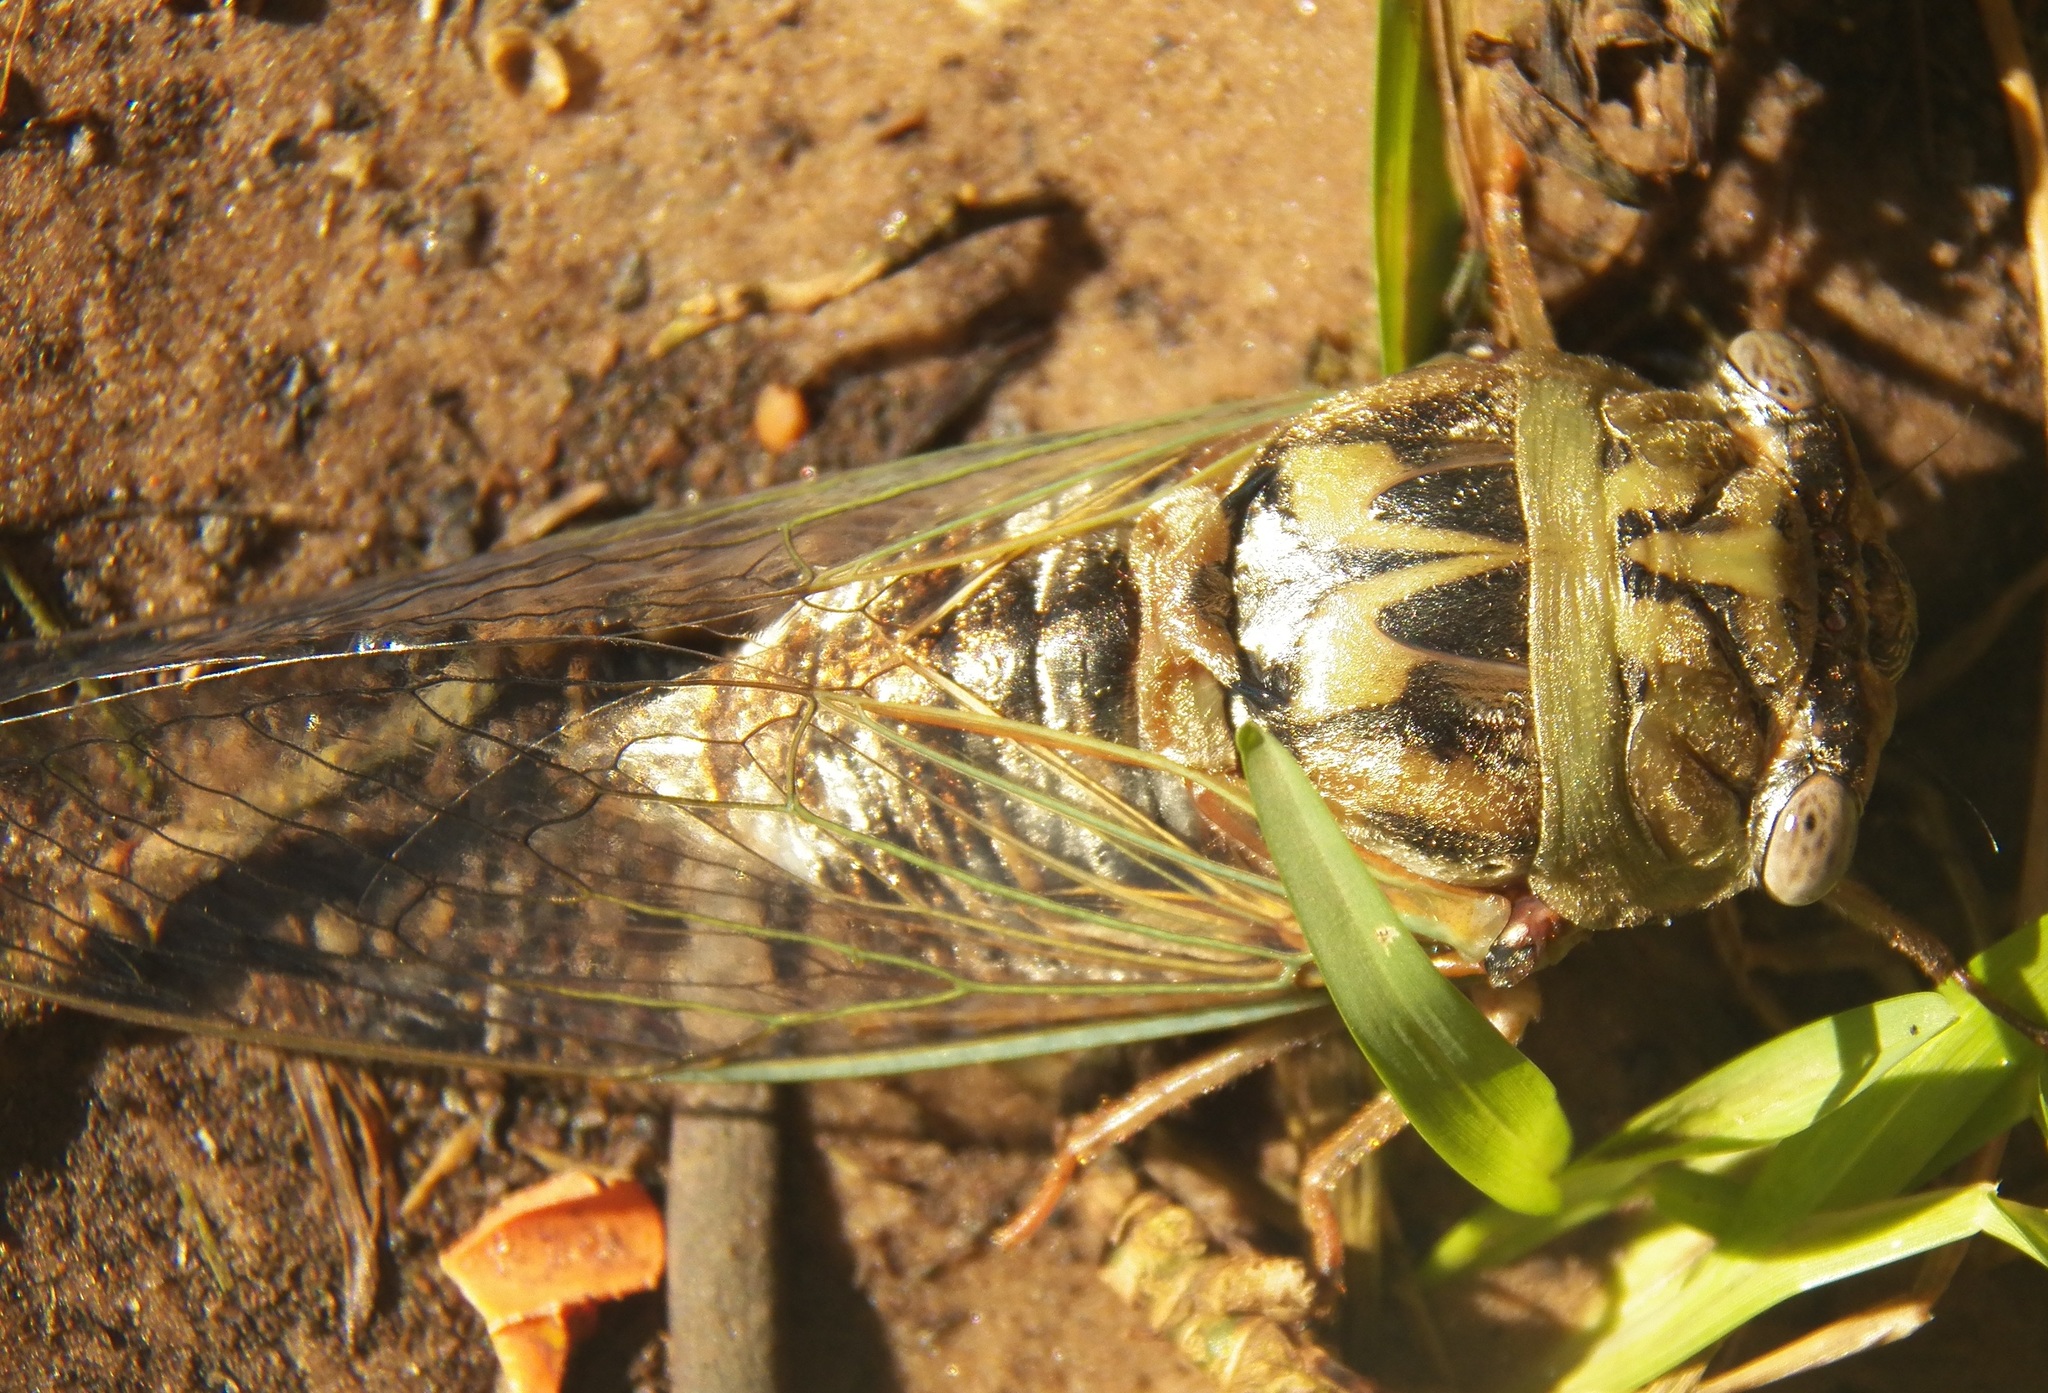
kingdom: Animalia
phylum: Arthropoda
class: Insecta
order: Hemiptera
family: Cicadidae
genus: Megatibicen
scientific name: Megatibicen resh
